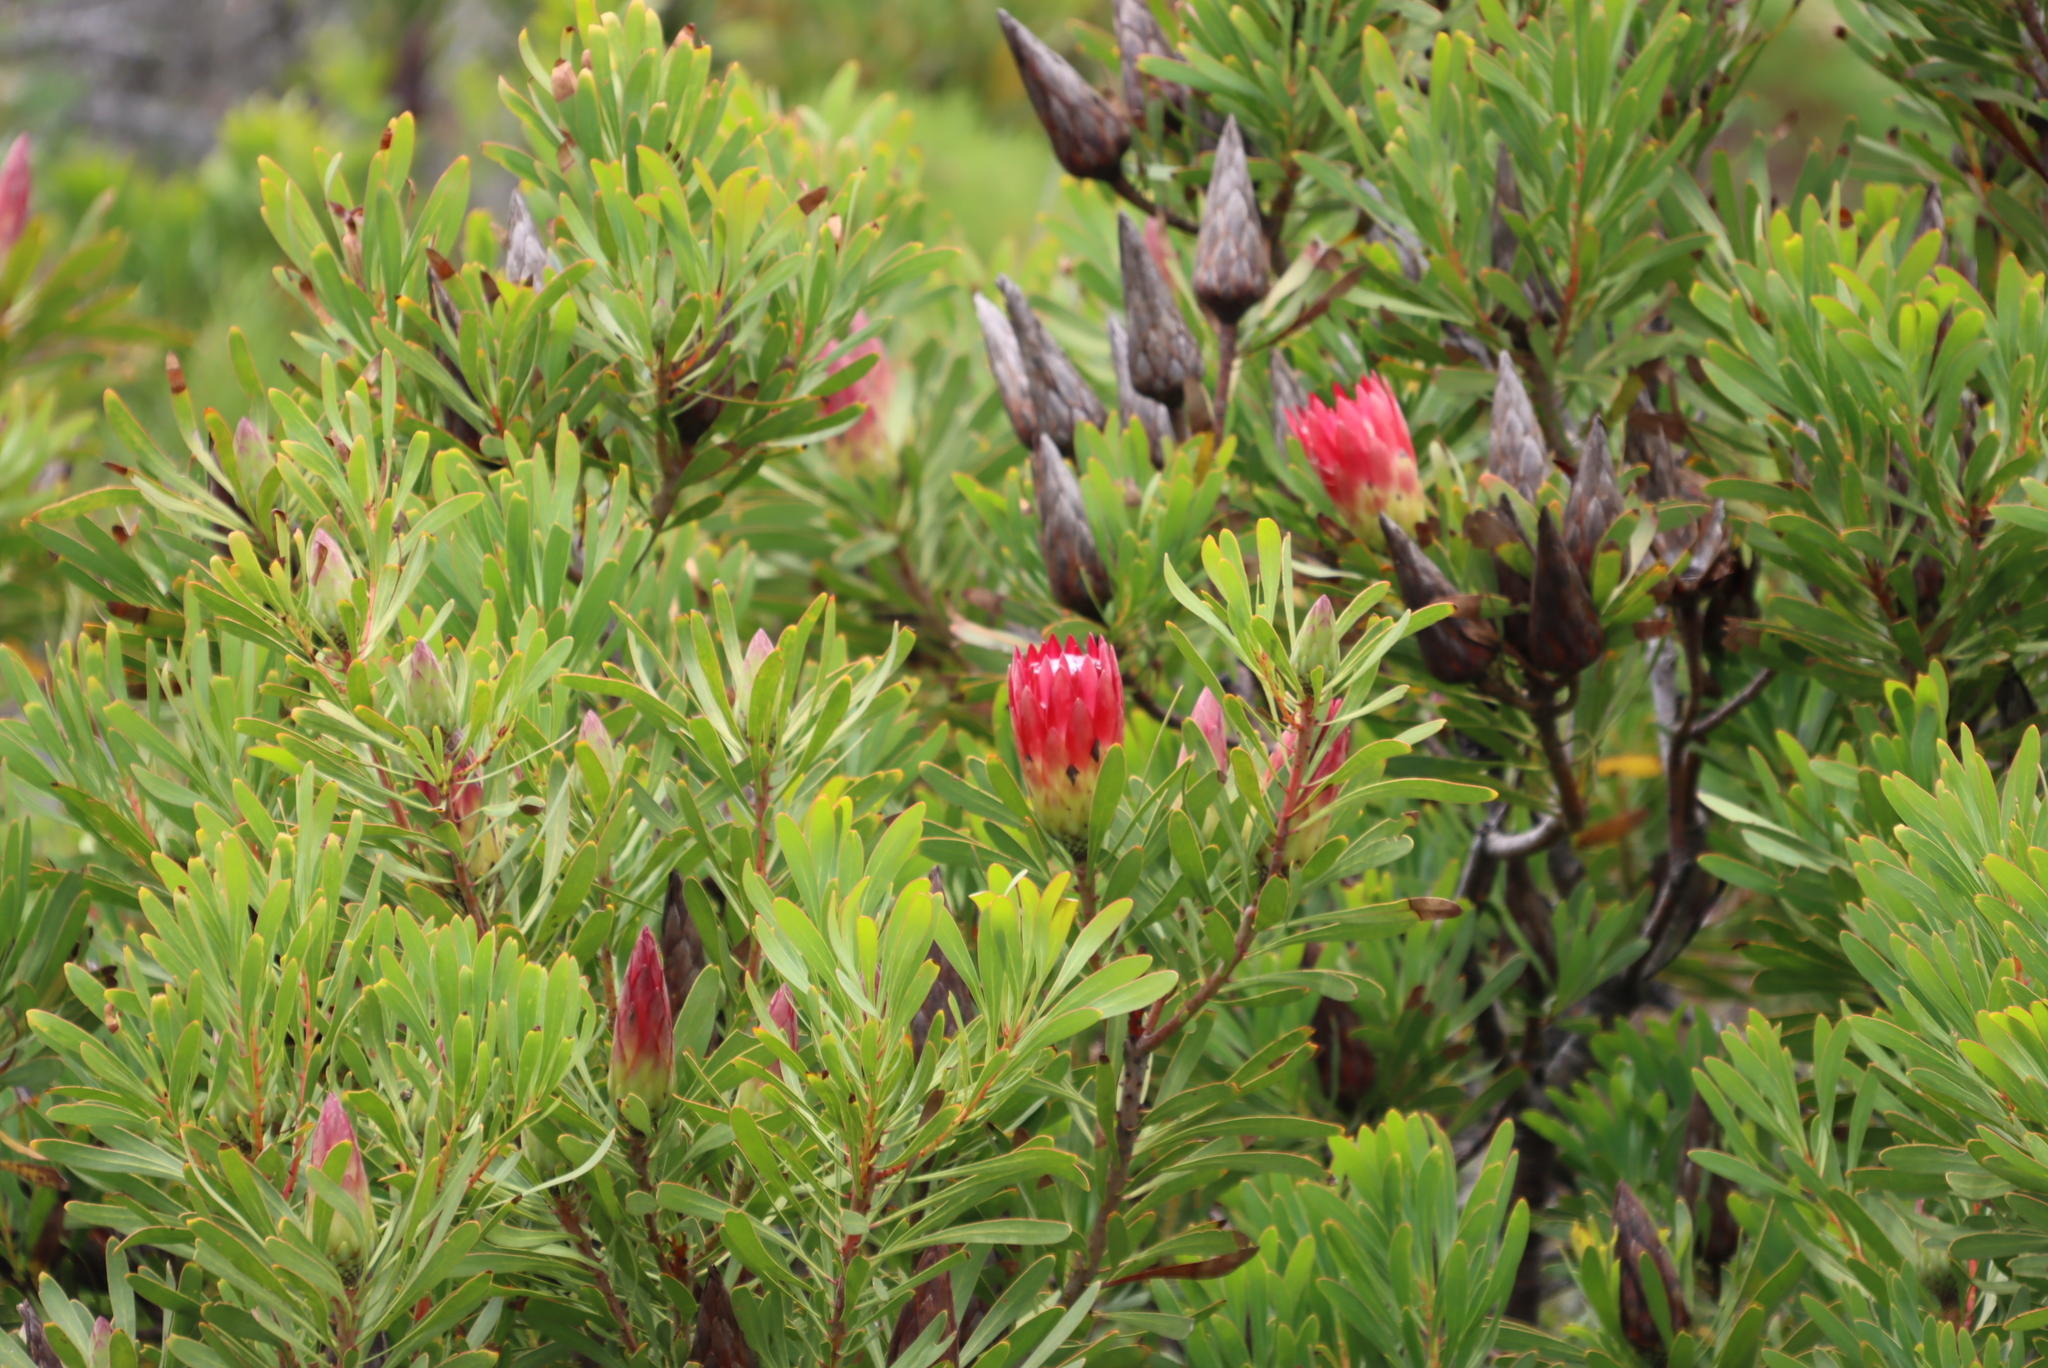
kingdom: Plantae
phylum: Tracheophyta
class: Magnoliopsida
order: Proteales
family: Proteaceae
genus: Protea
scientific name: Protea repens
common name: Sugarbush
